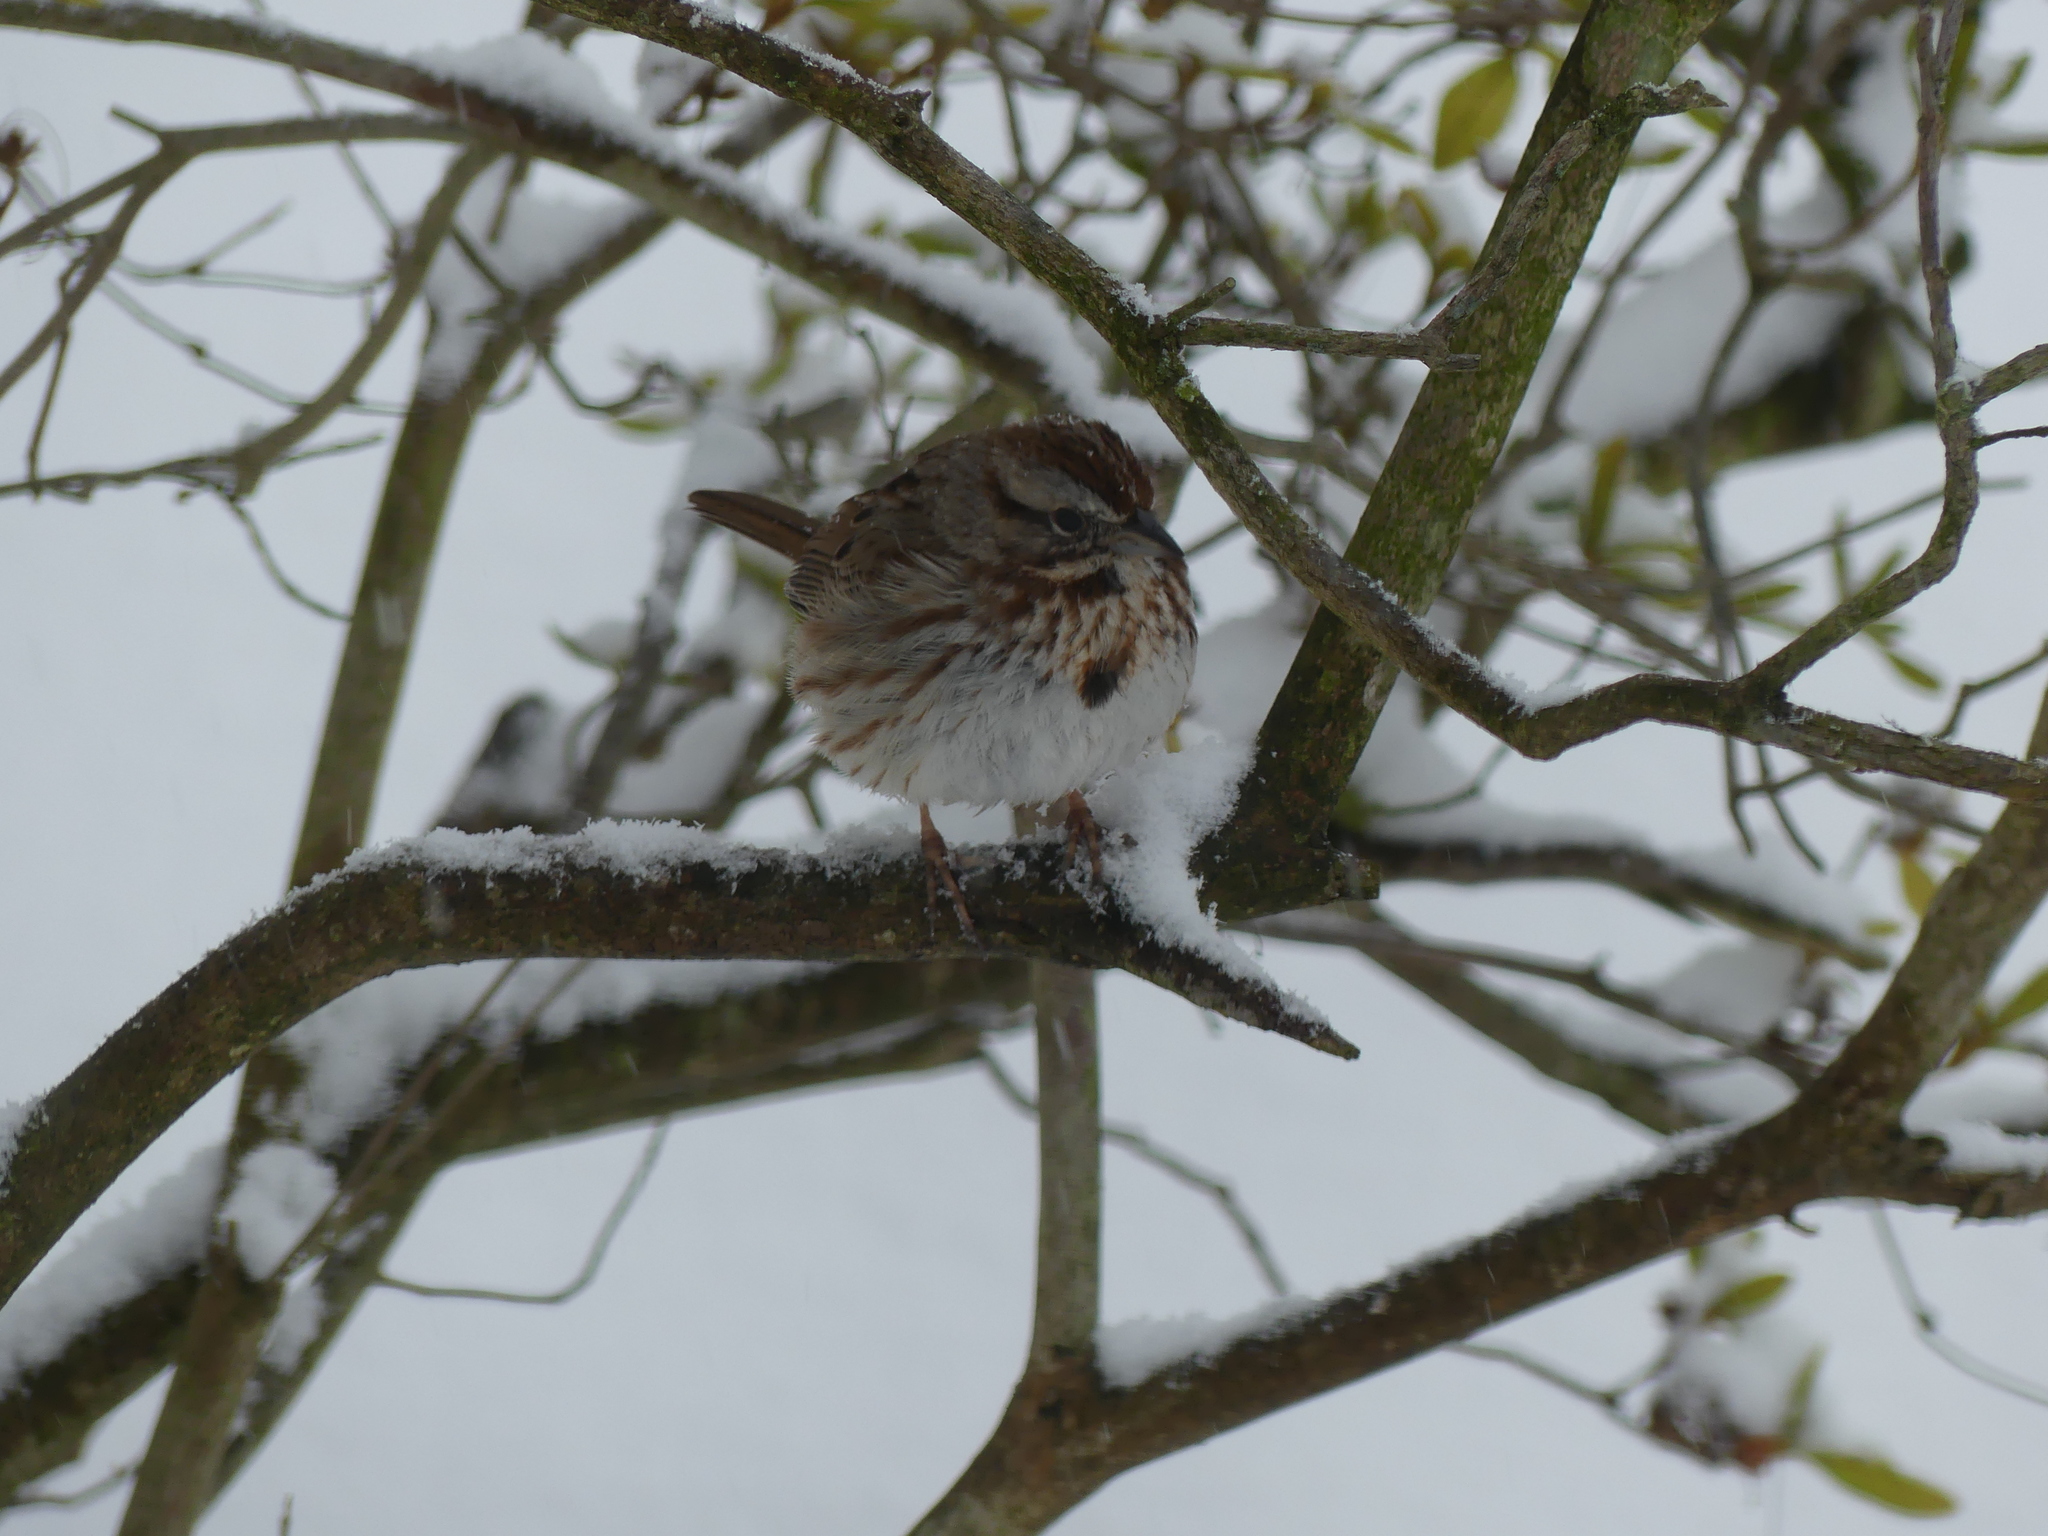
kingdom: Animalia
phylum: Chordata
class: Aves
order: Passeriformes
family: Passerellidae
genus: Melospiza
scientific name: Melospiza melodia
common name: Song sparrow
